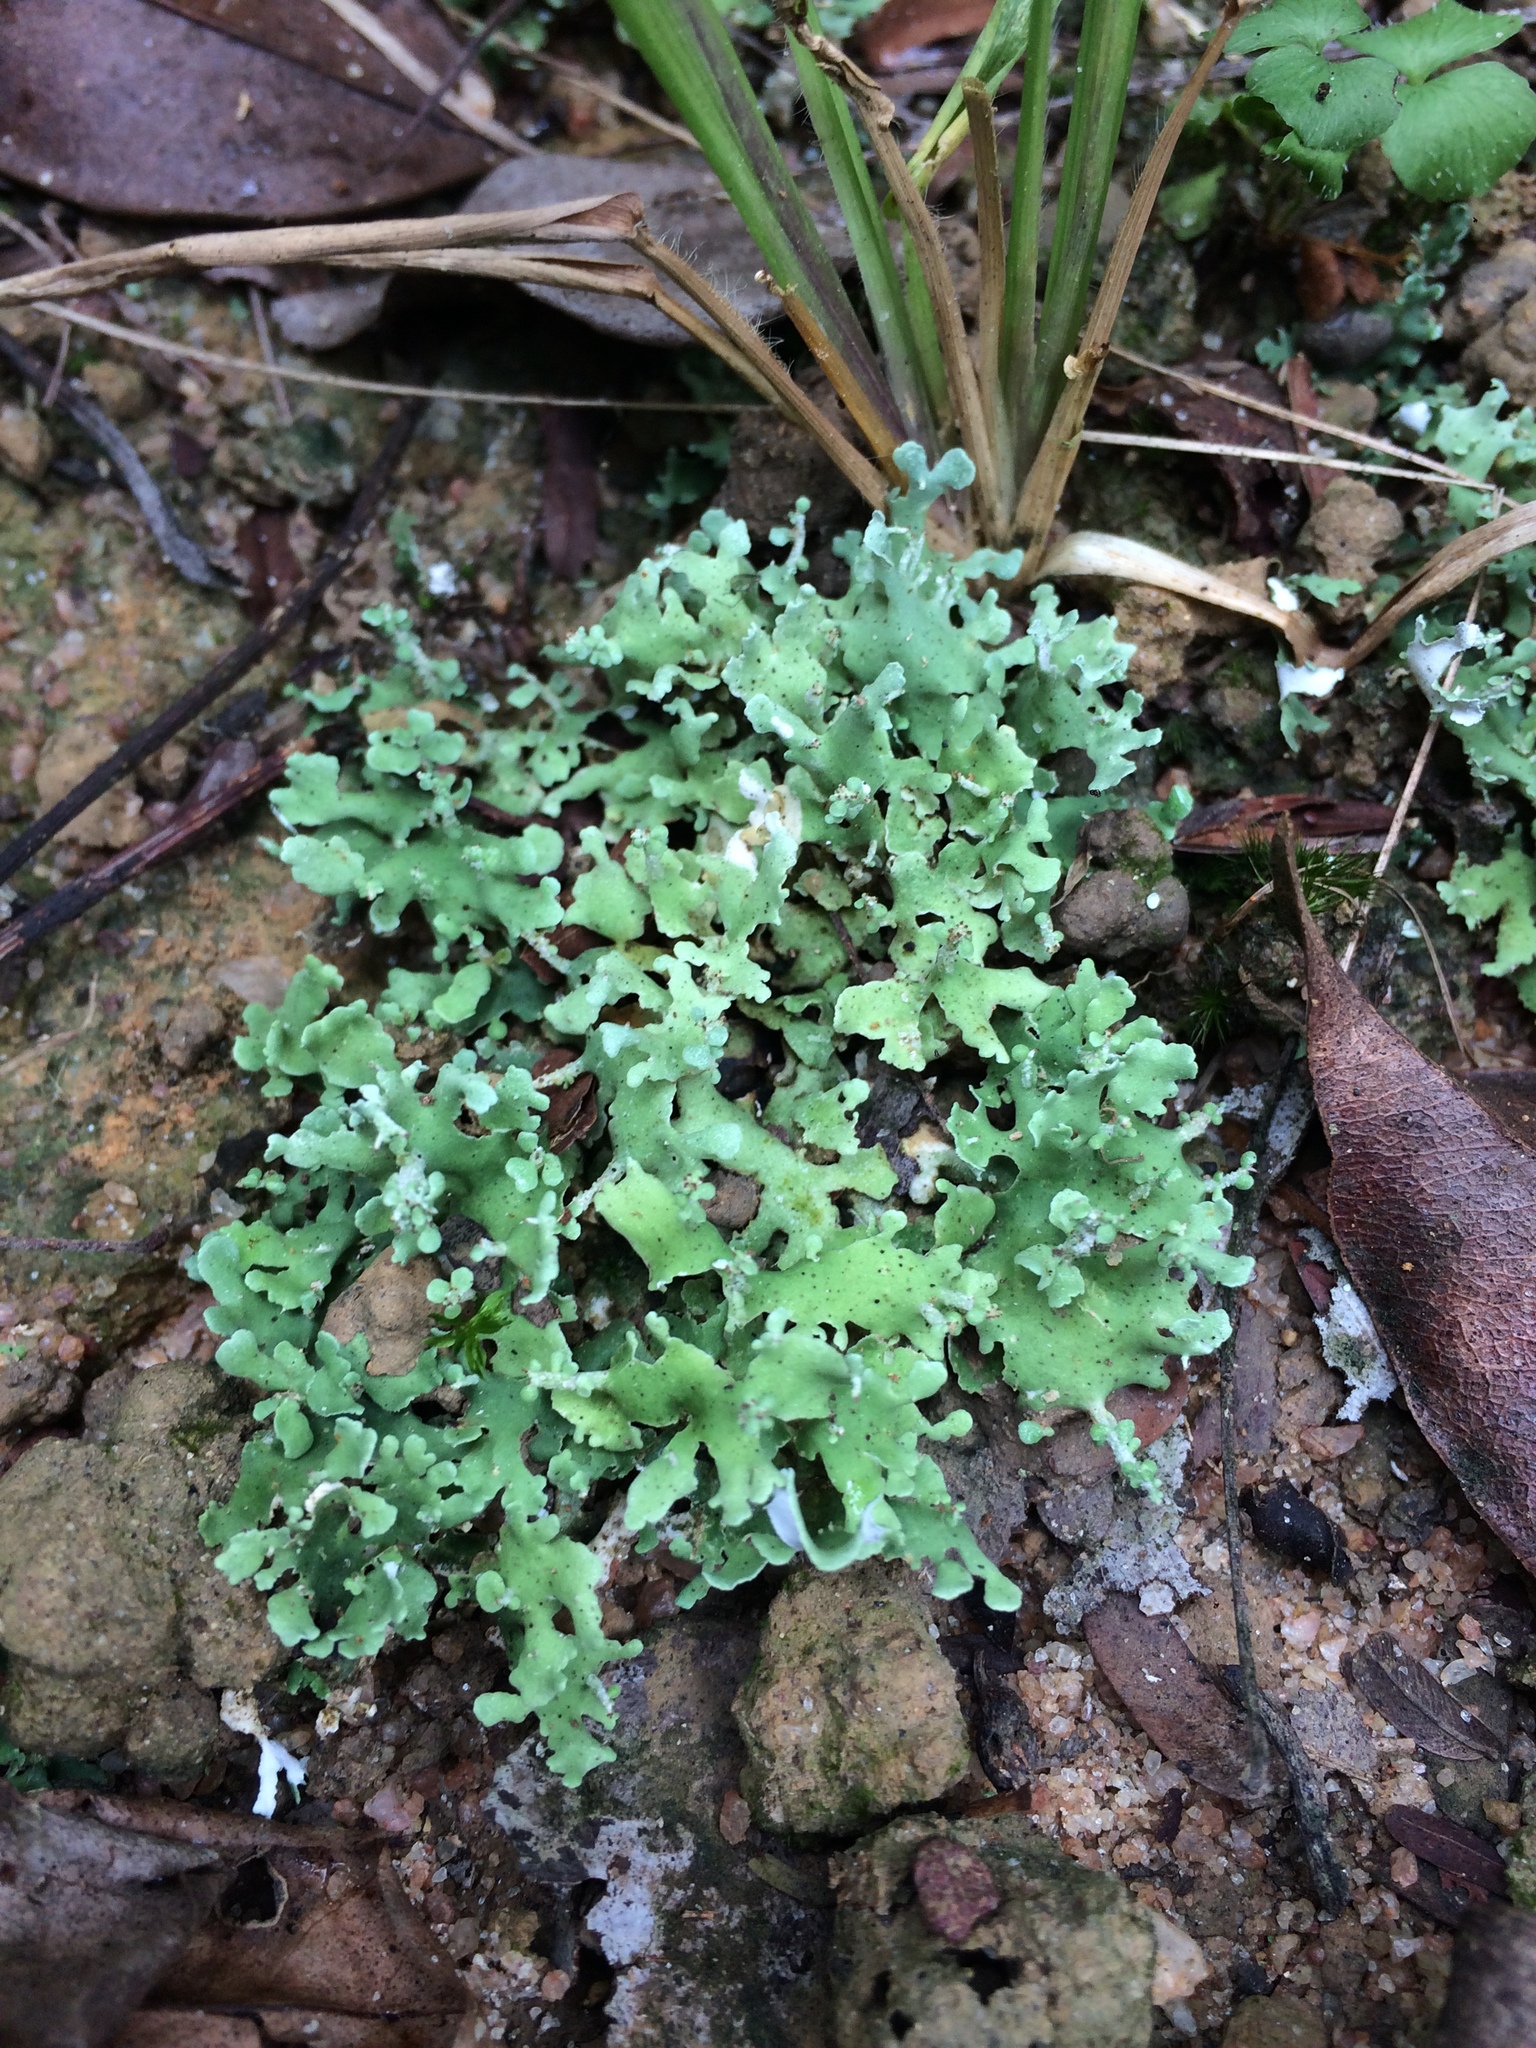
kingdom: Fungi
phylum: Ascomycota
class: Lecanoromycetes
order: Lecanorales
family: Cladoniaceae
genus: Cladonia
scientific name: Cladonia pityrophylla
